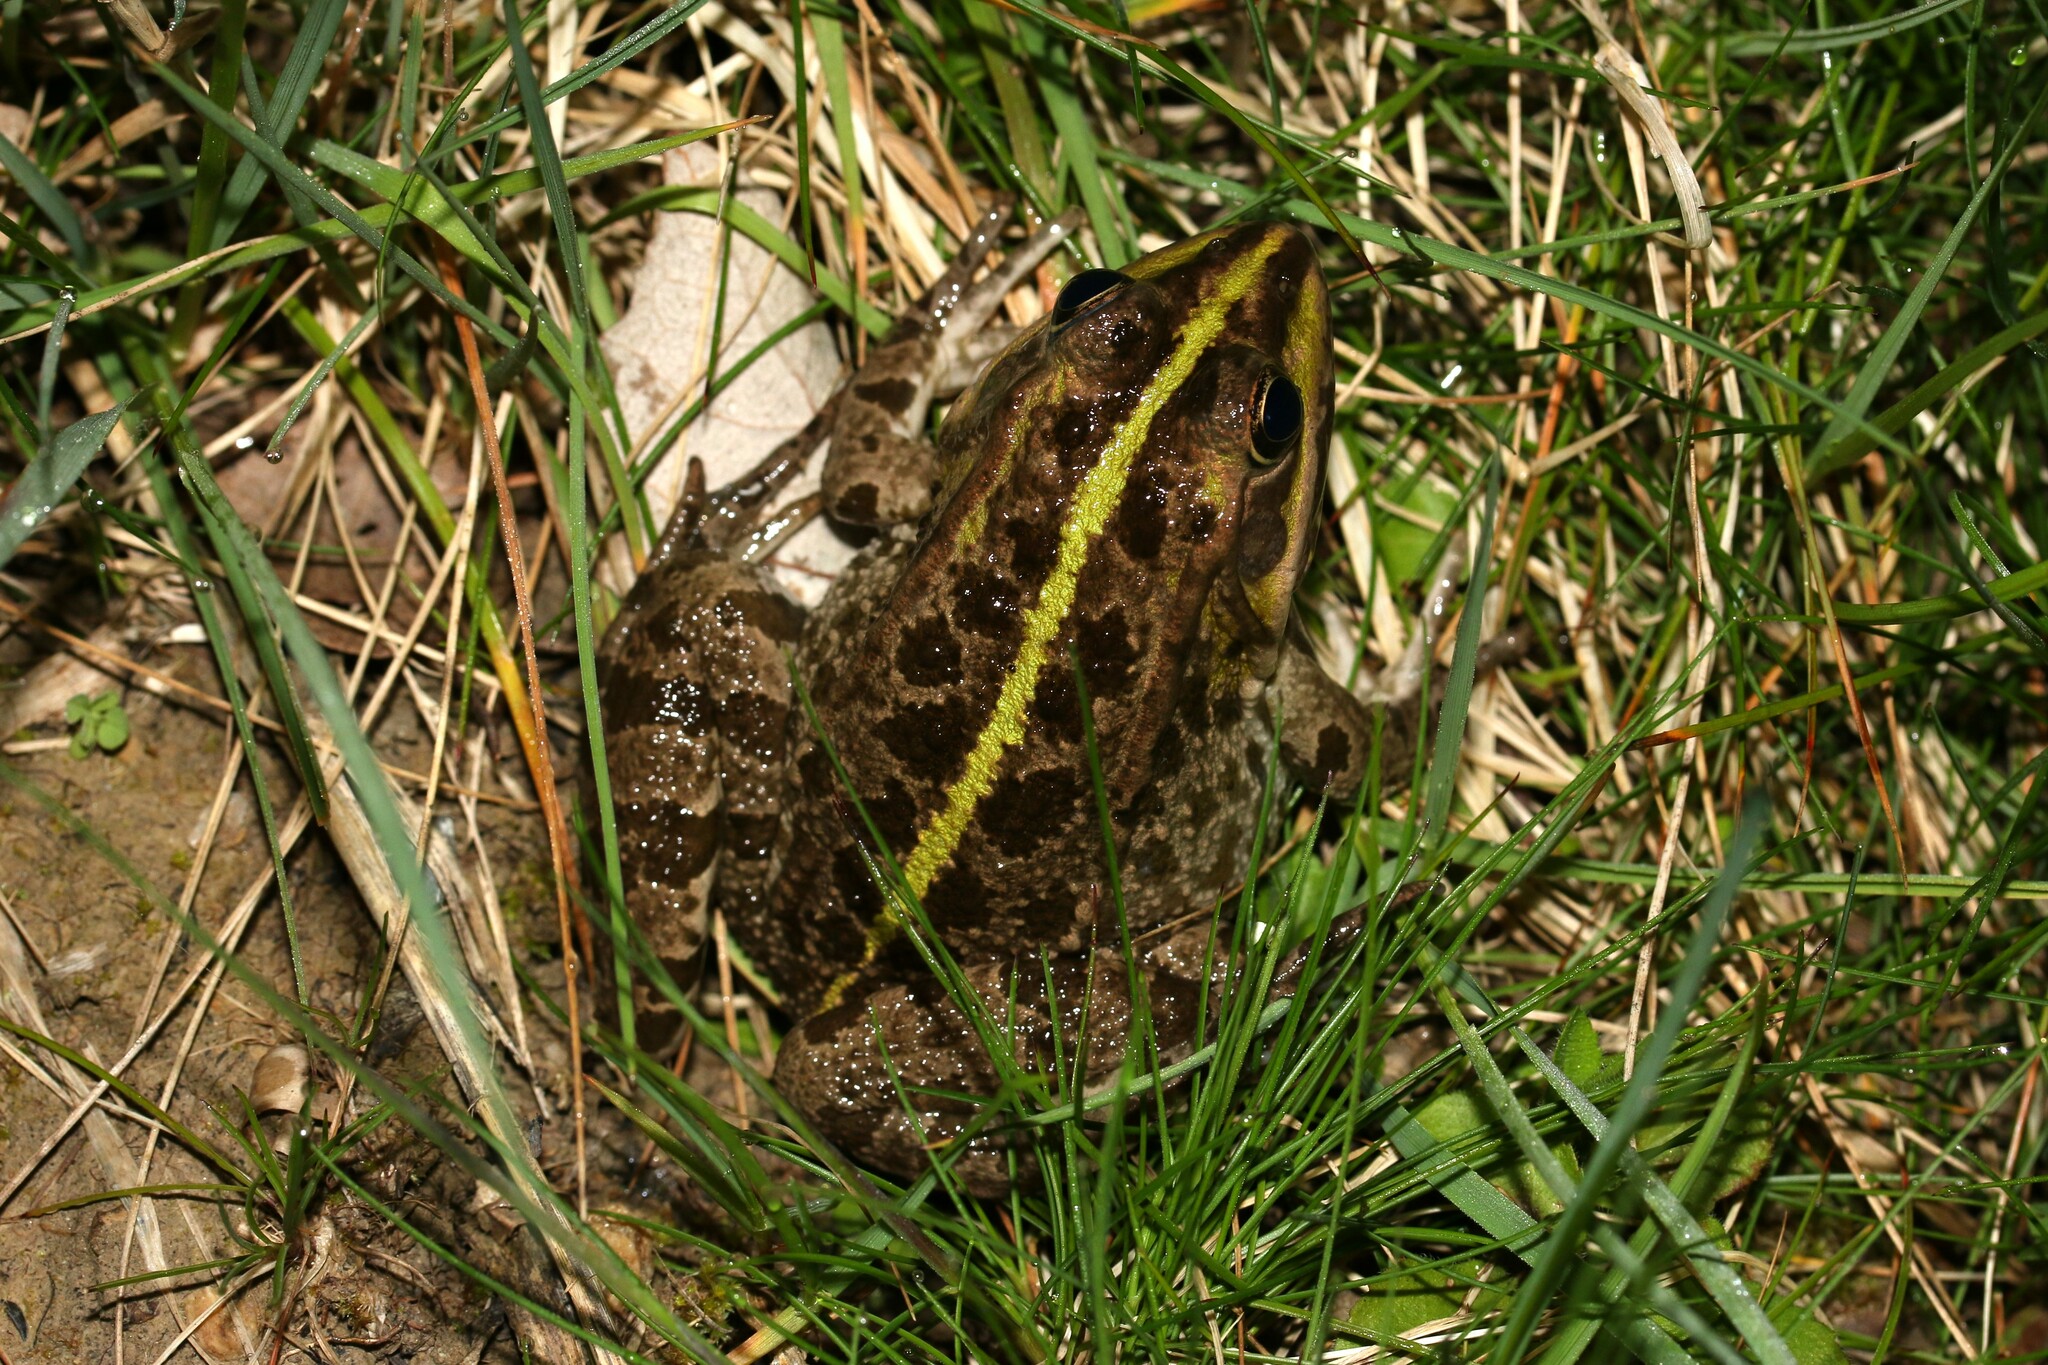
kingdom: Animalia
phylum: Chordata
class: Amphibia
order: Anura
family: Ranidae
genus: Pelophylax
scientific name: Pelophylax
